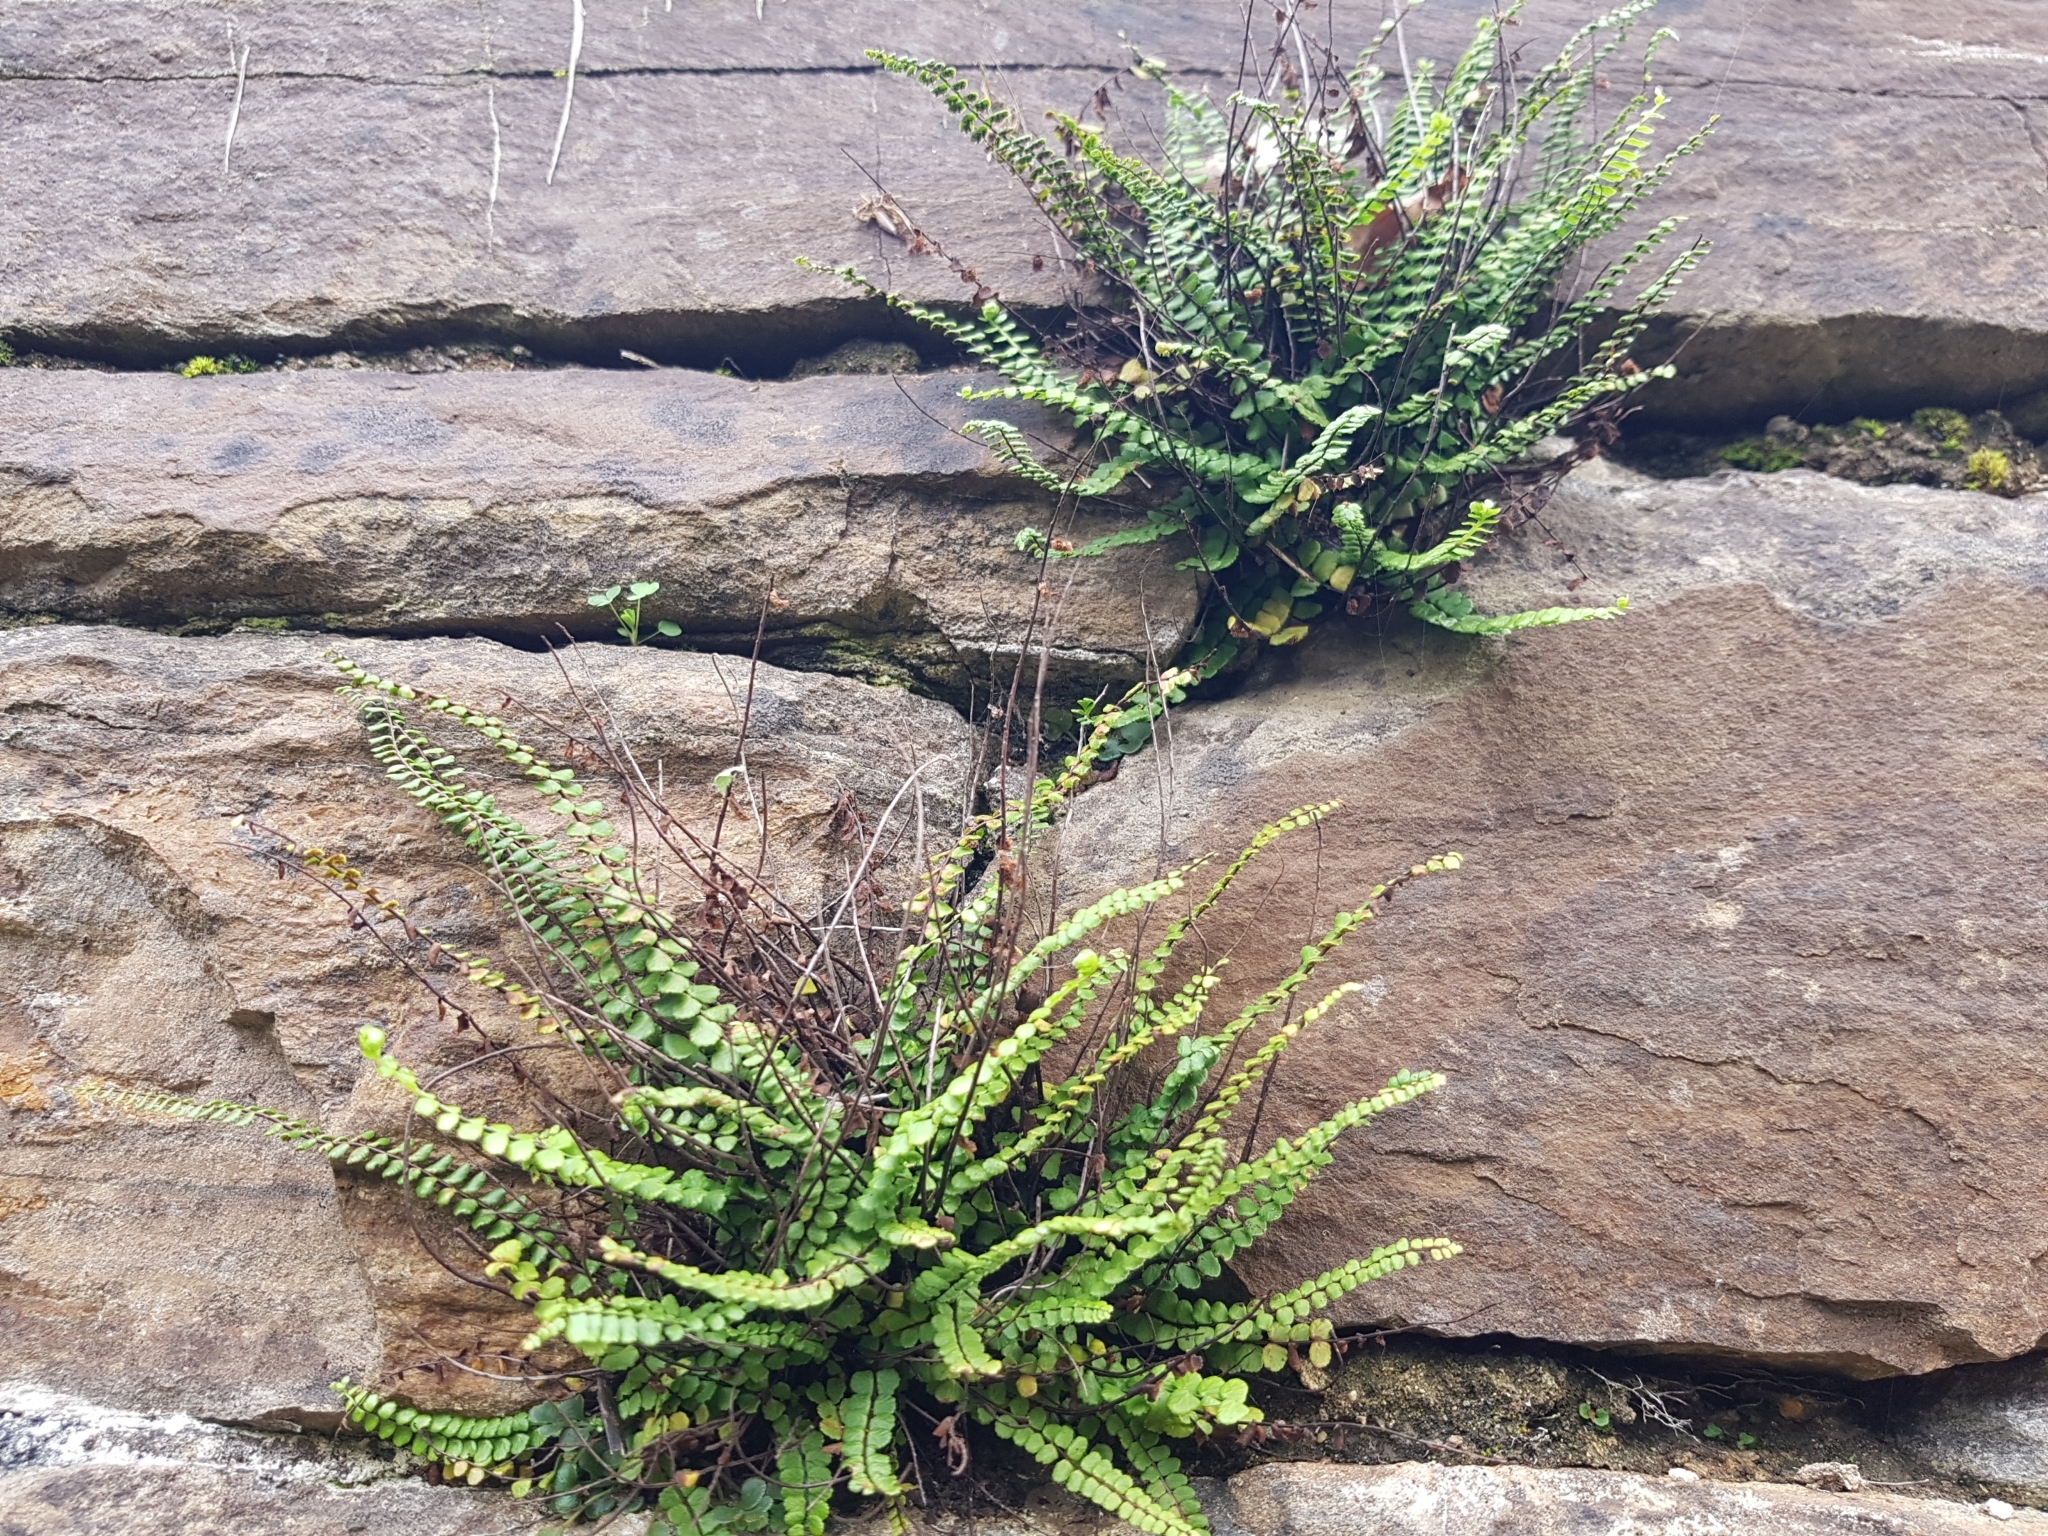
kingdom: Plantae
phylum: Tracheophyta
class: Polypodiopsida
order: Polypodiales
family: Aspleniaceae
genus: Asplenium
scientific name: Asplenium trichomanes
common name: Maidenhair spleenwort
